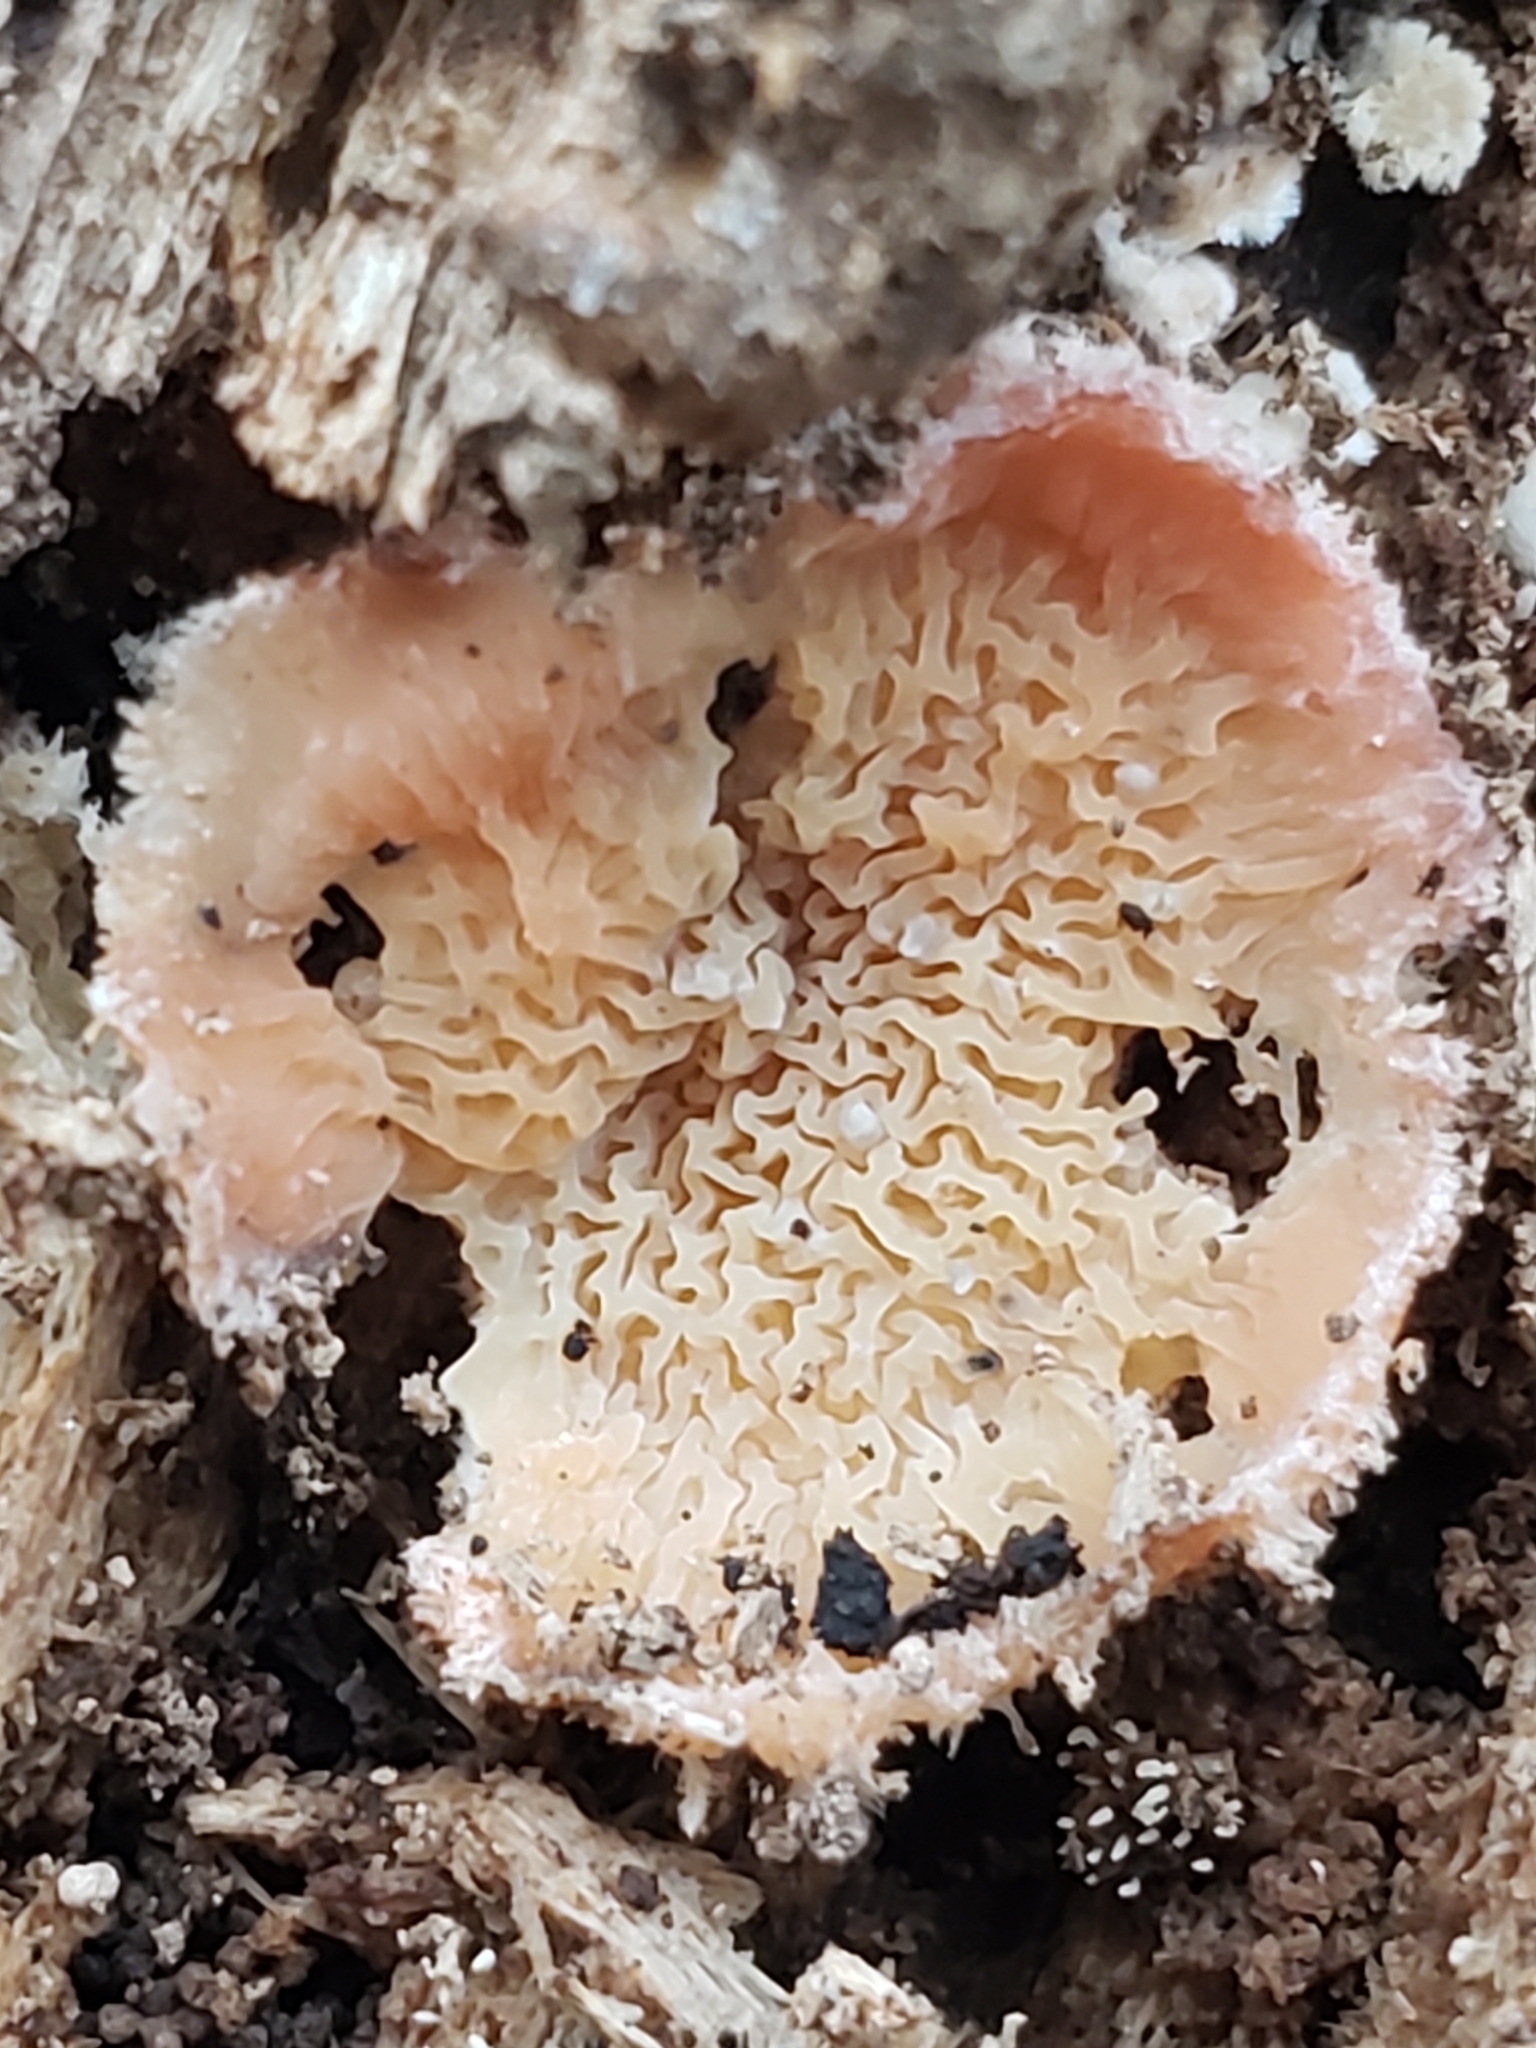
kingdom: Fungi
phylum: Basidiomycota
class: Agaricomycetes
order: Polyporales
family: Meruliaceae
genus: Phlebia
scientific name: Phlebia tremellosa
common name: Jelly rot
